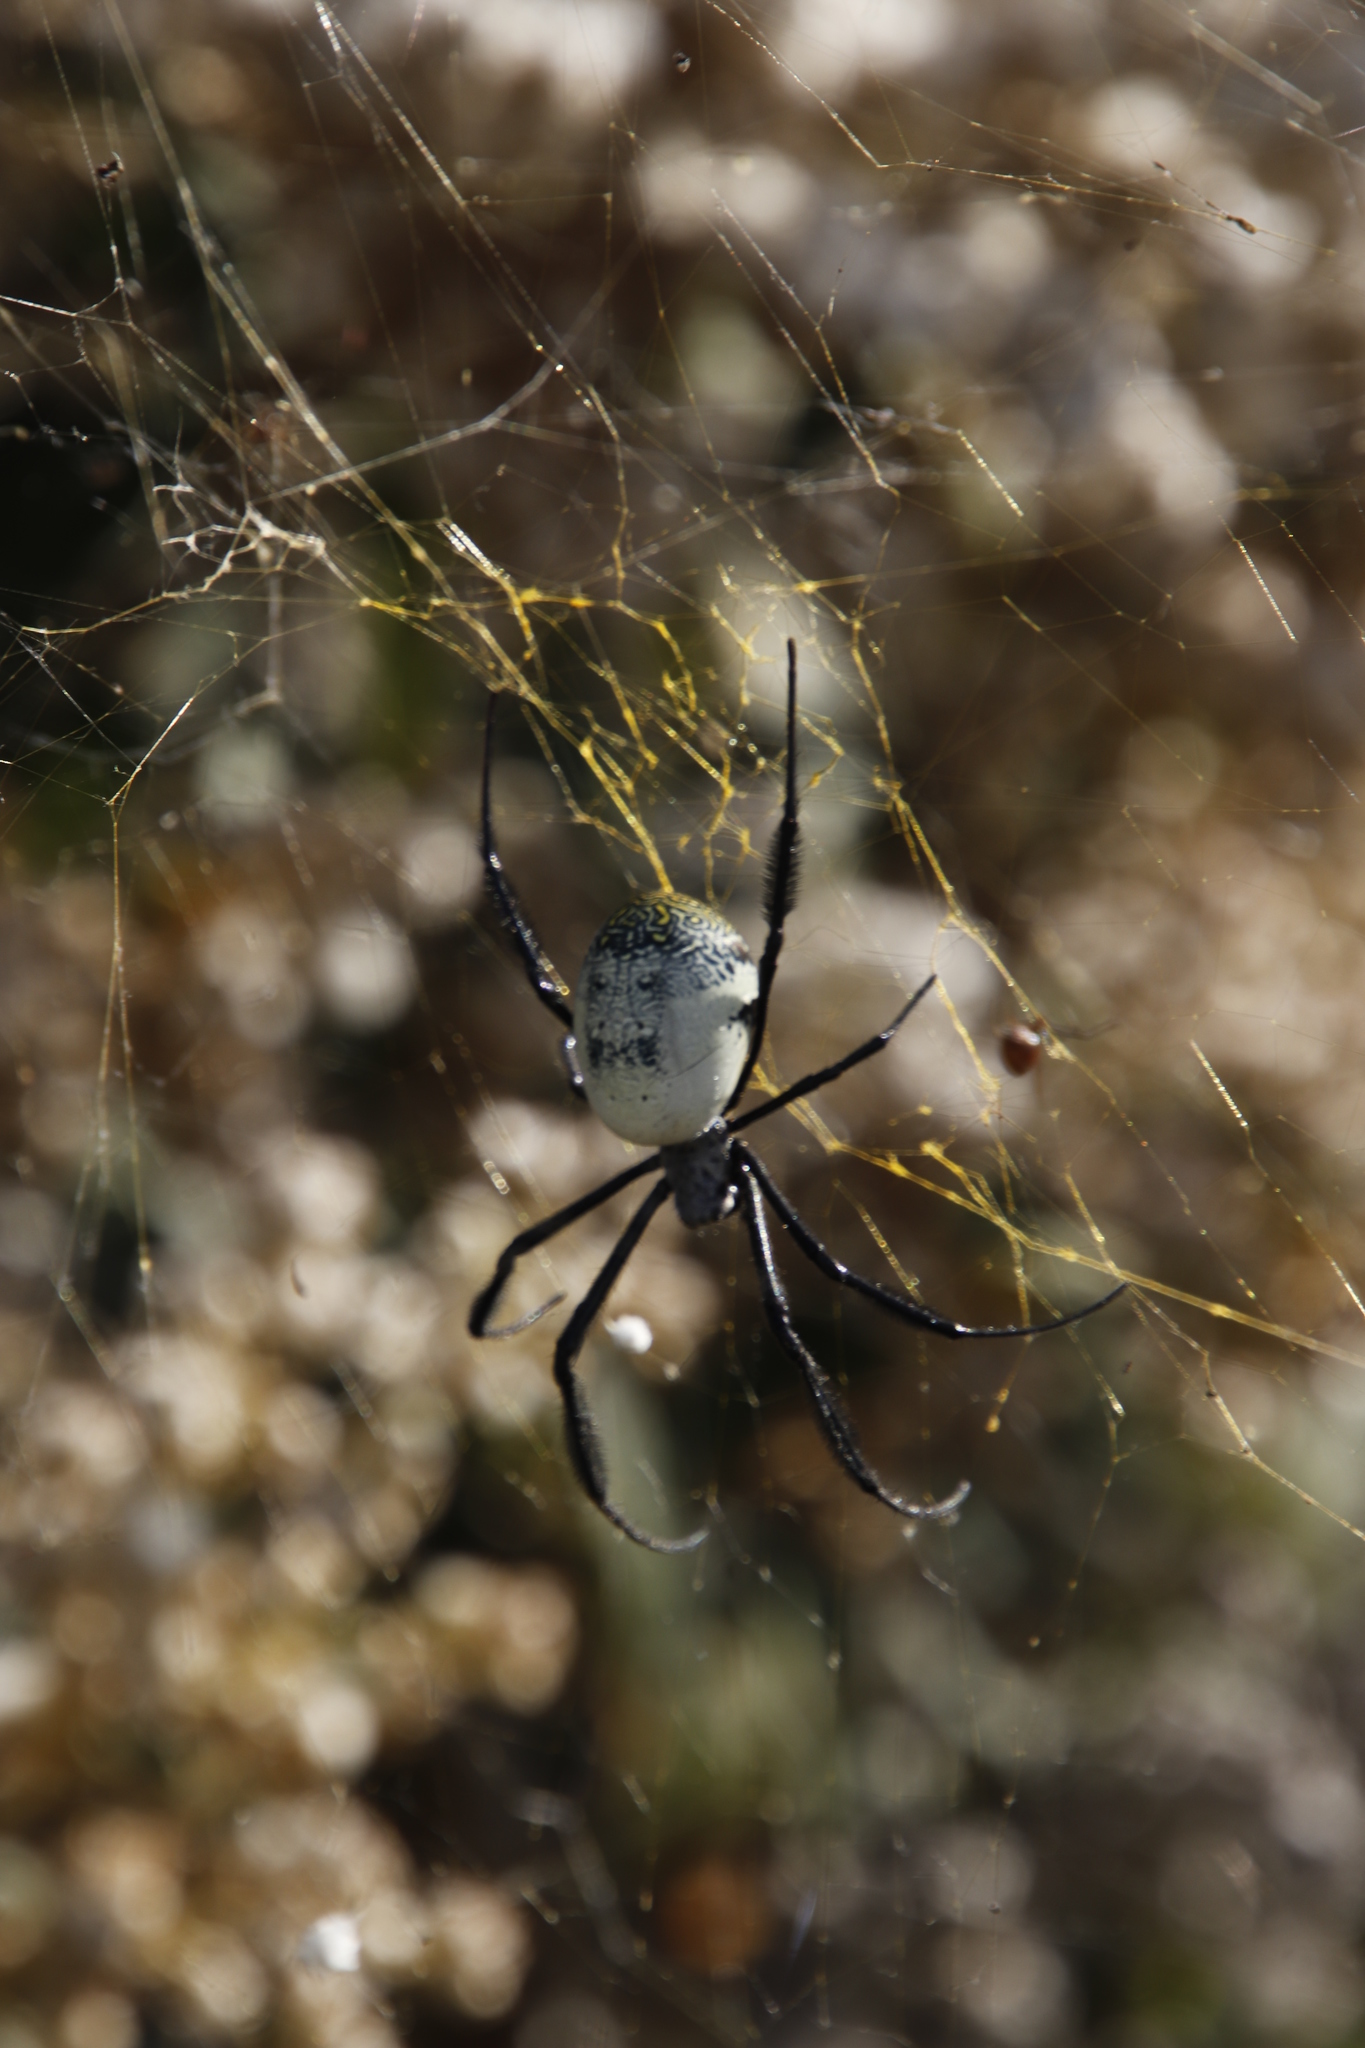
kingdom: Animalia
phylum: Arthropoda
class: Arachnida
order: Araneae
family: Araneidae
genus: Trichonephila
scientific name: Trichonephila fenestrata
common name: Hairy golden orb weaver
